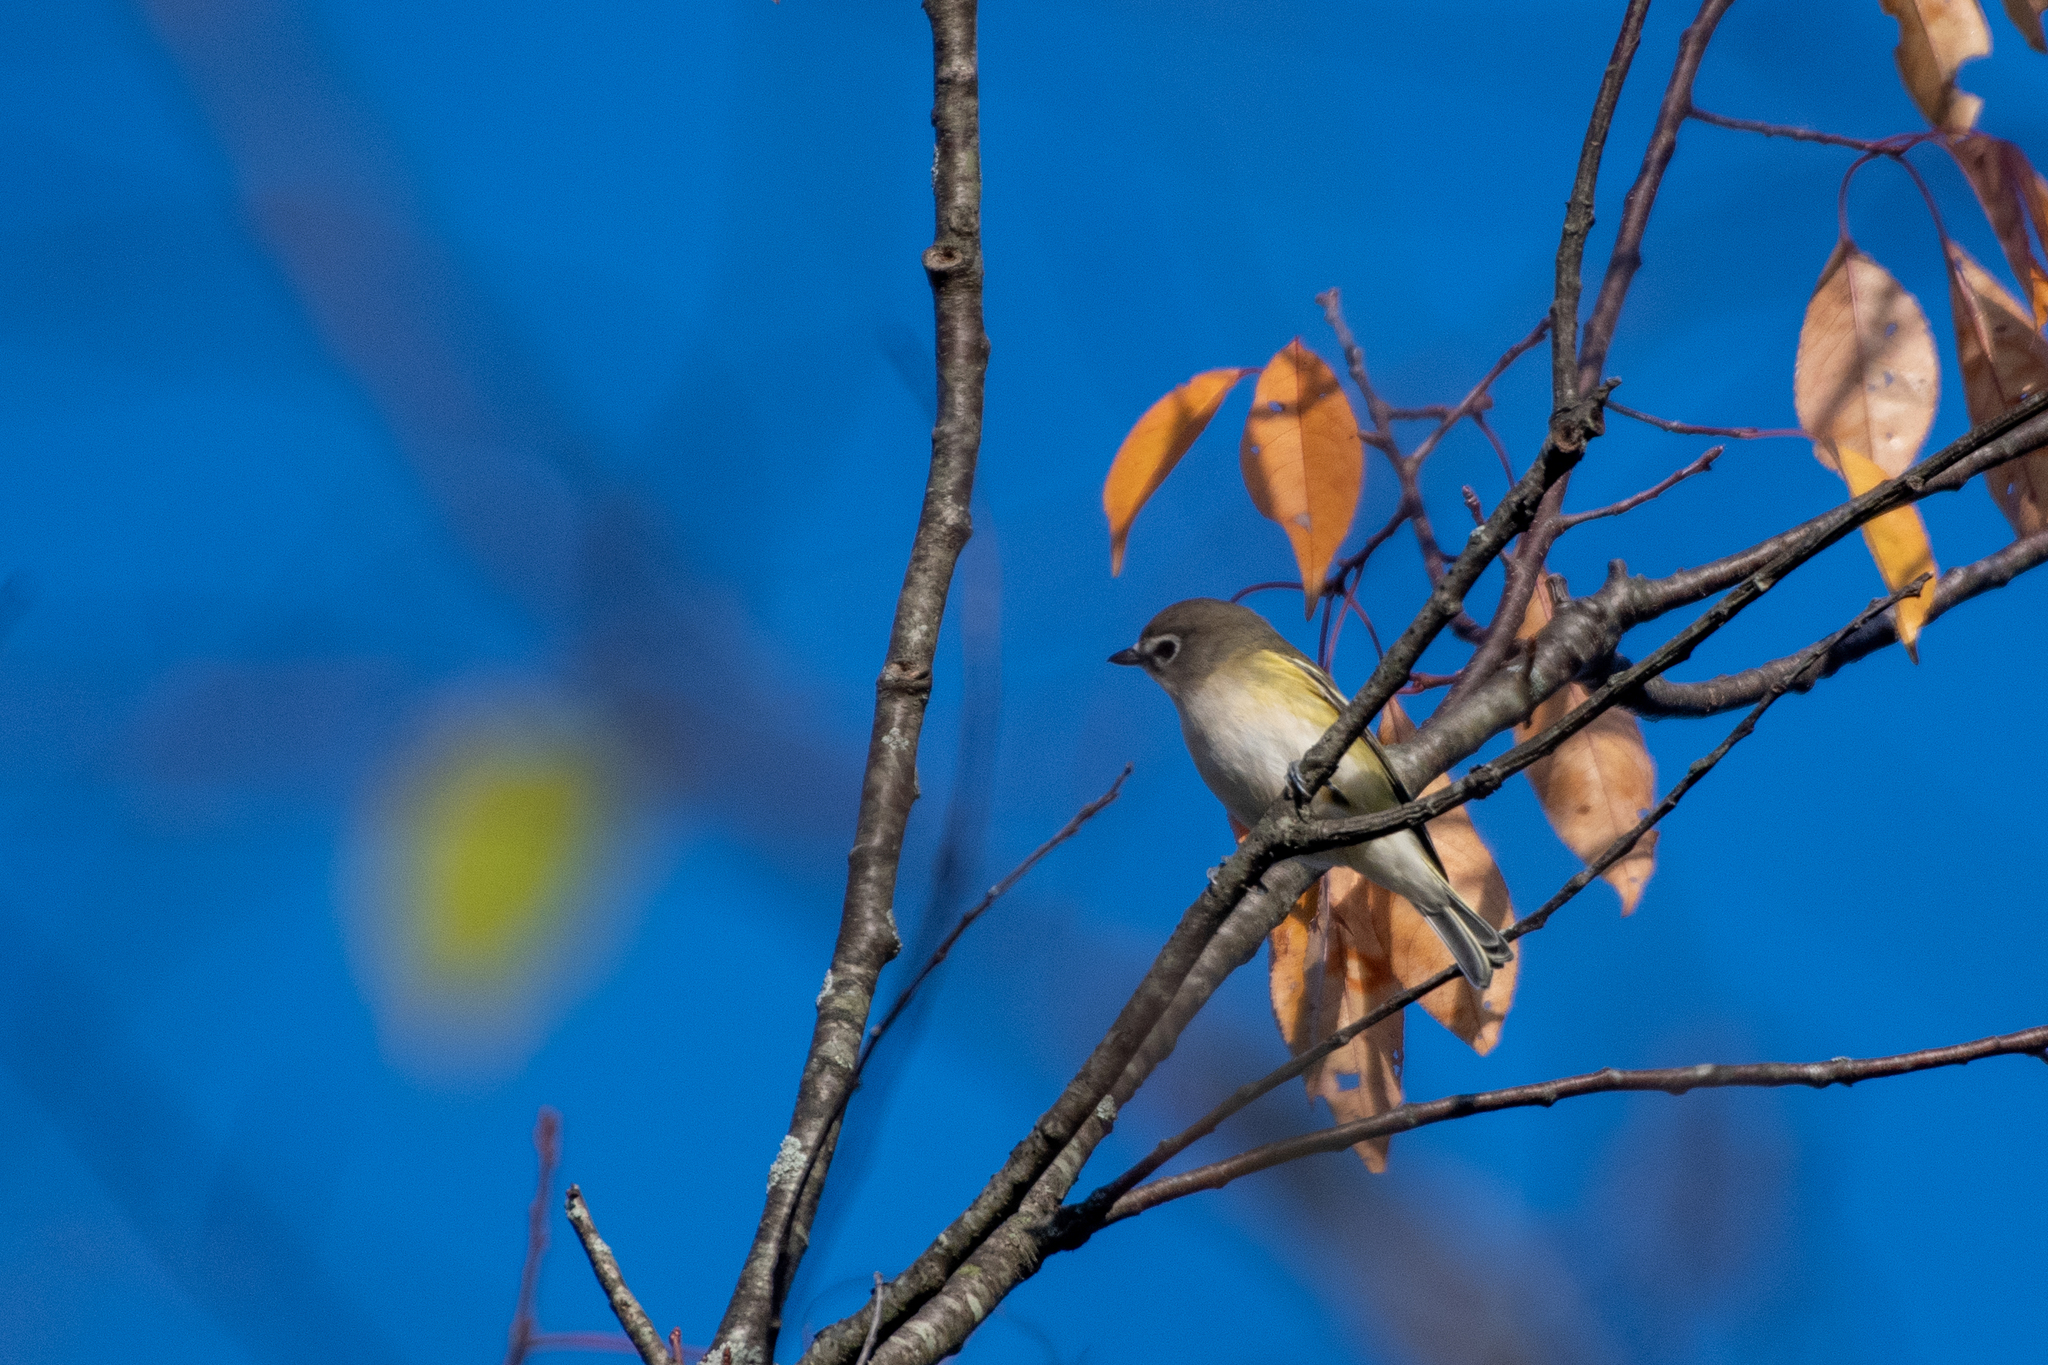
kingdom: Animalia
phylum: Chordata
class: Aves
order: Passeriformes
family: Vireonidae
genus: Vireo
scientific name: Vireo solitarius
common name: Blue-headed vireo
